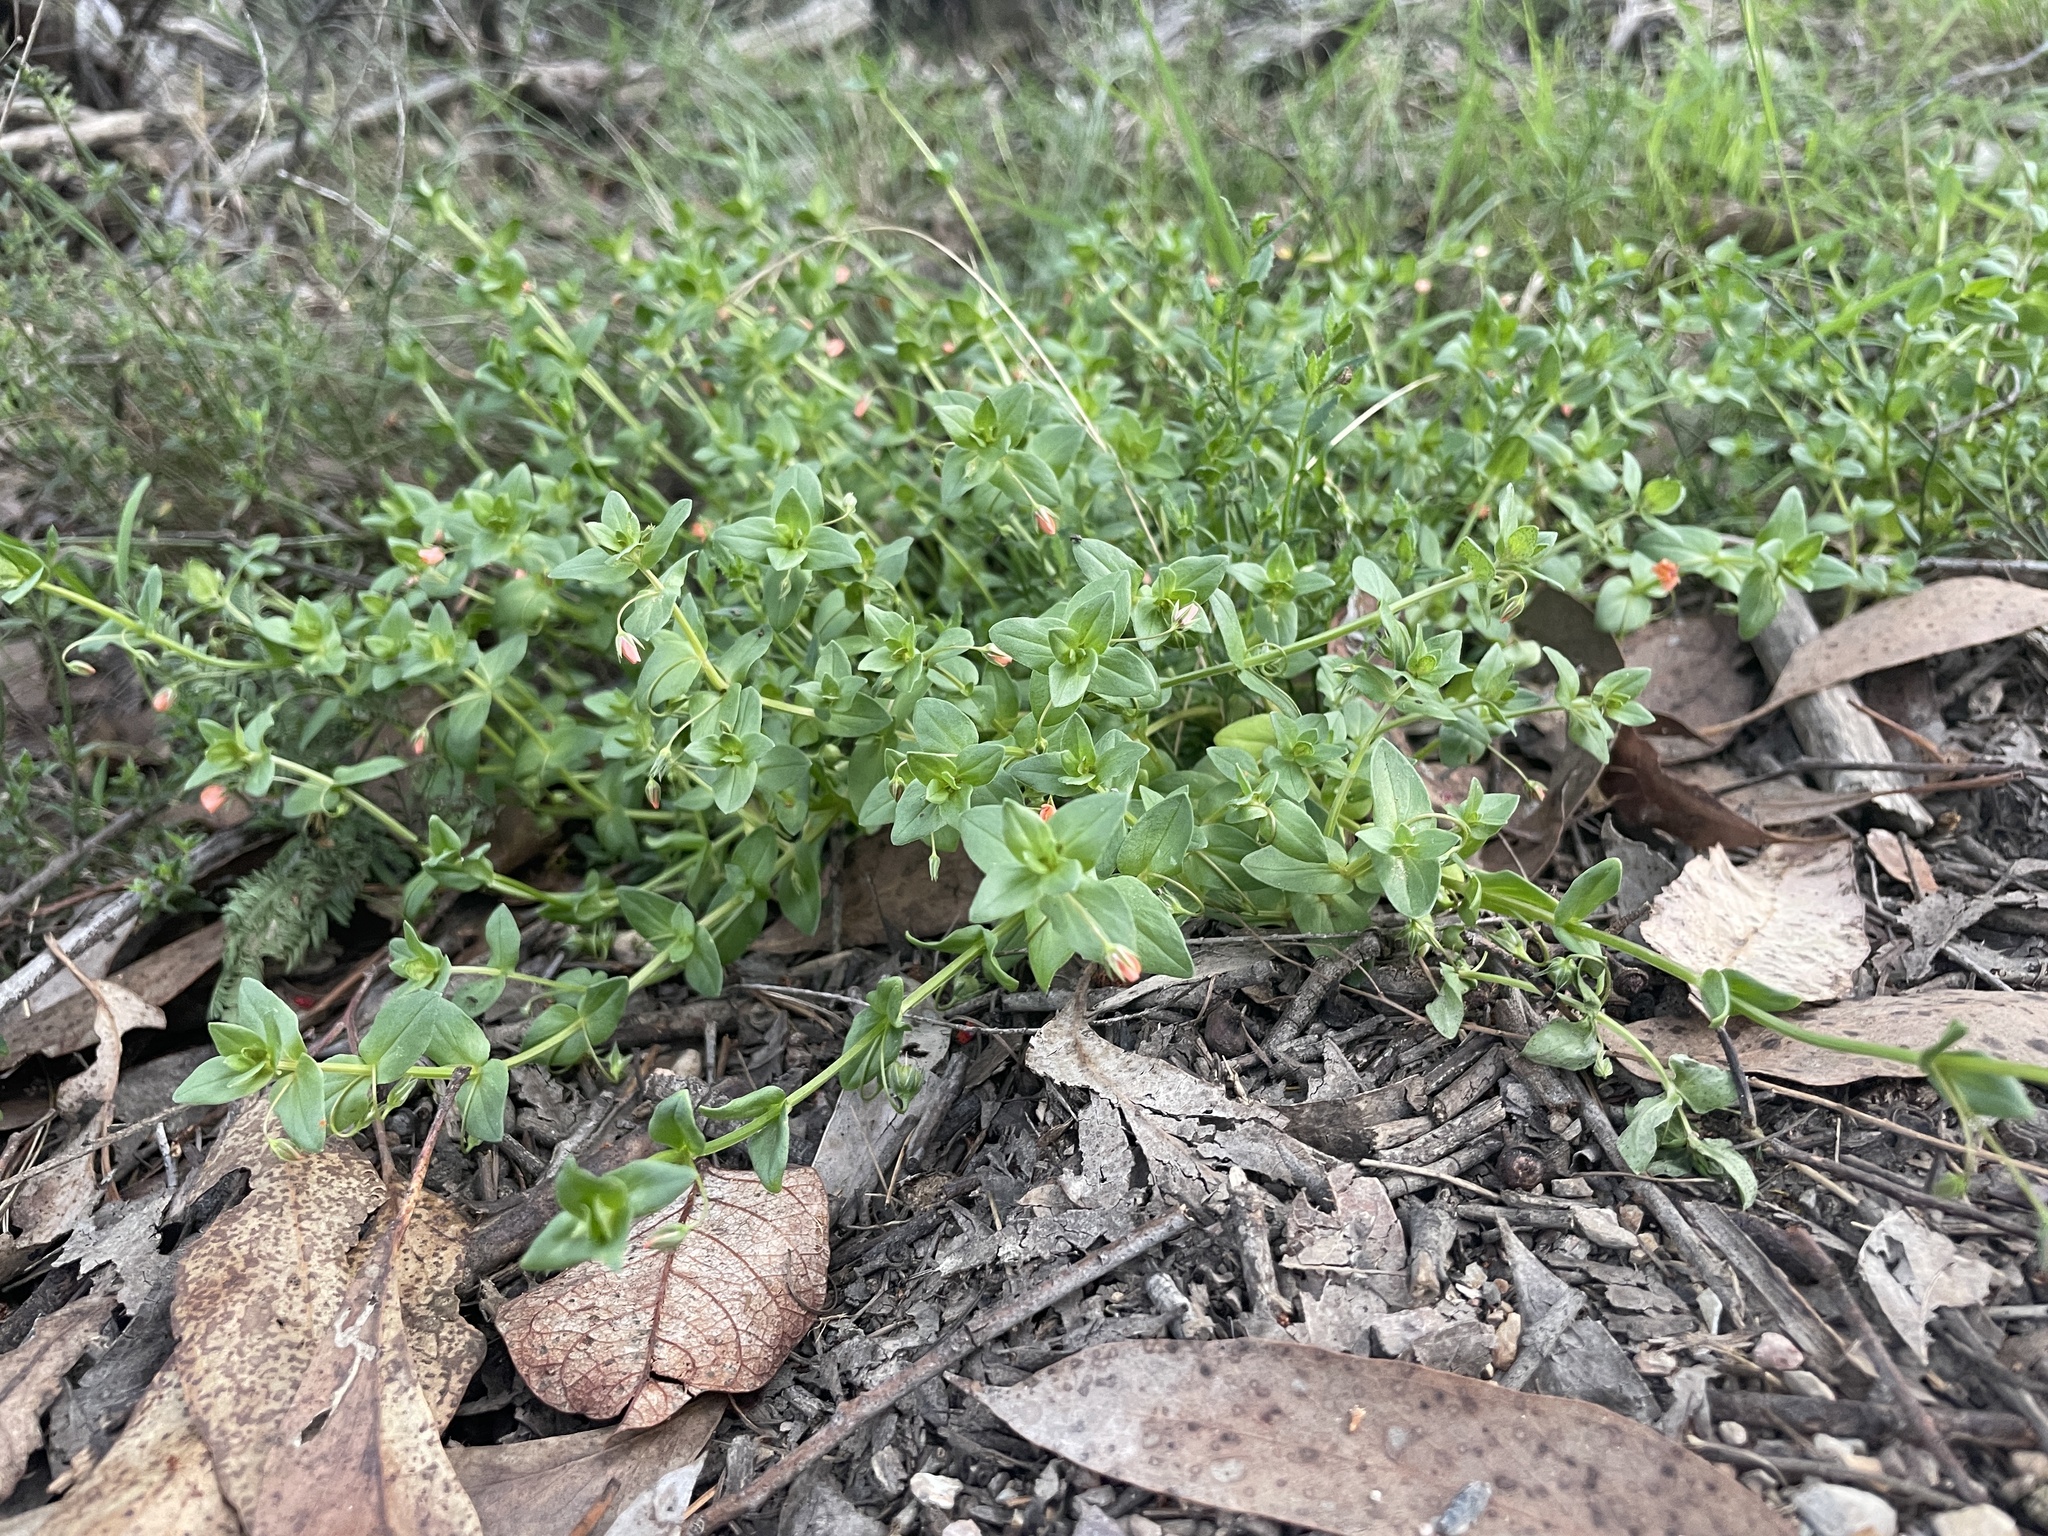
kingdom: Plantae
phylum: Tracheophyta
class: Magnoliopsida
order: Ericales
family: Primulaceae
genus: Lysimachia
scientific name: Lysimachia arvensis
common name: Scarlet pimpernel
